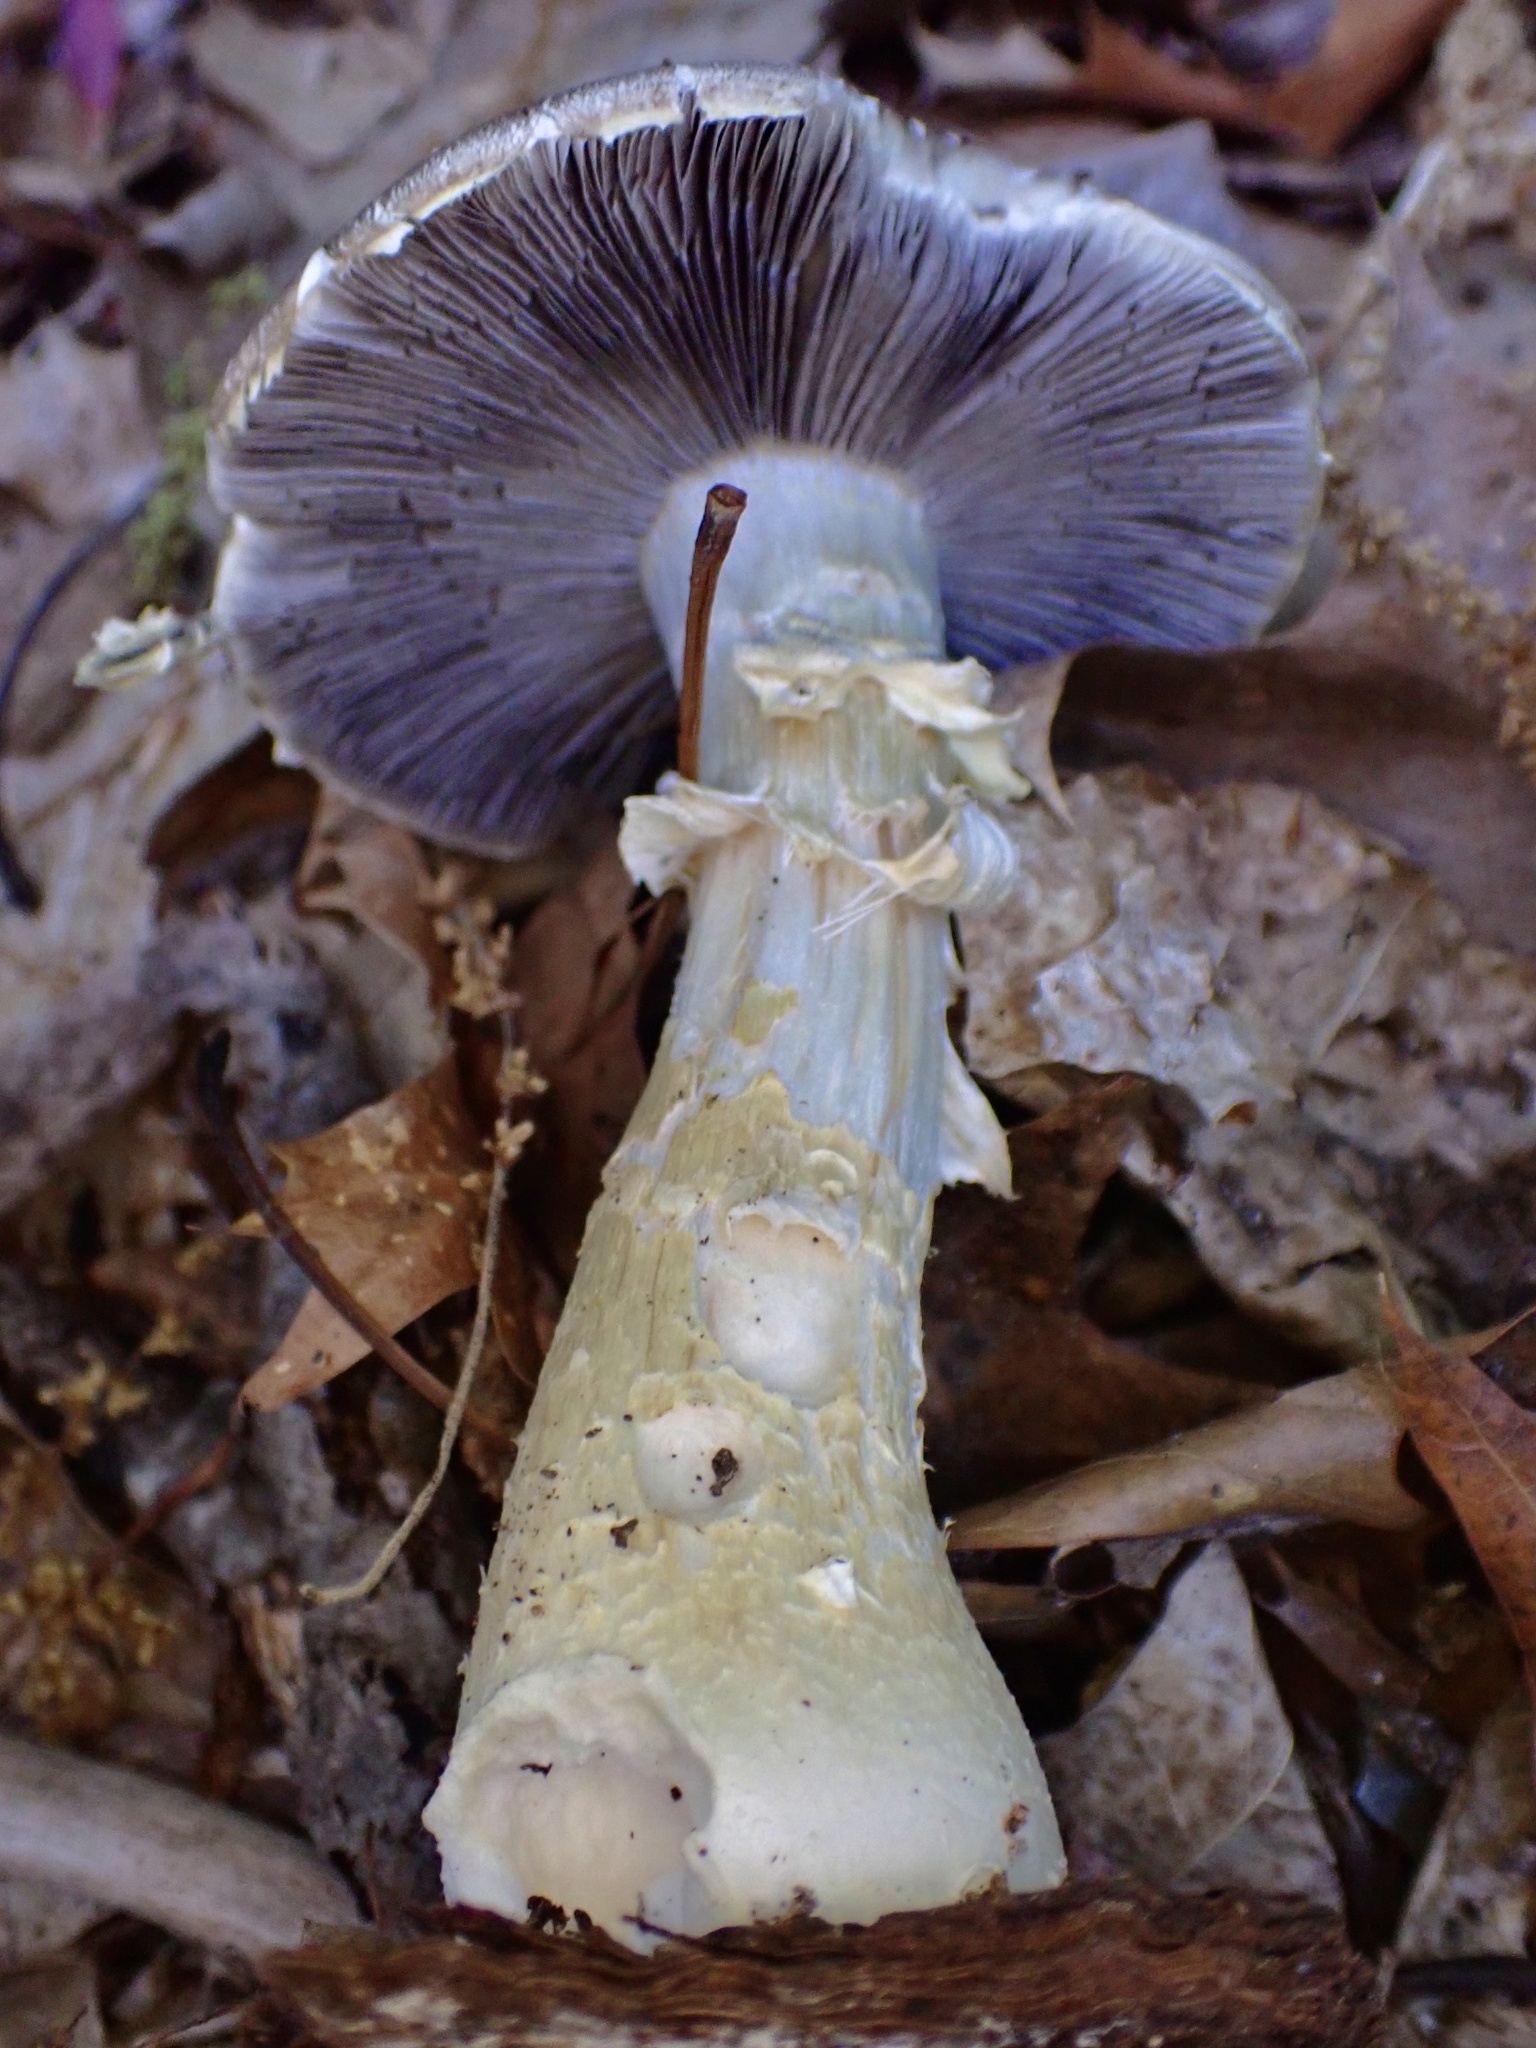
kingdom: Fungi
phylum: Basidiomycota
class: Agaricomycetes
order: Agaricales
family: Strophariaceae
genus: Stropharia
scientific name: Stropharia rugosoannulata
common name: Wine roundhead
